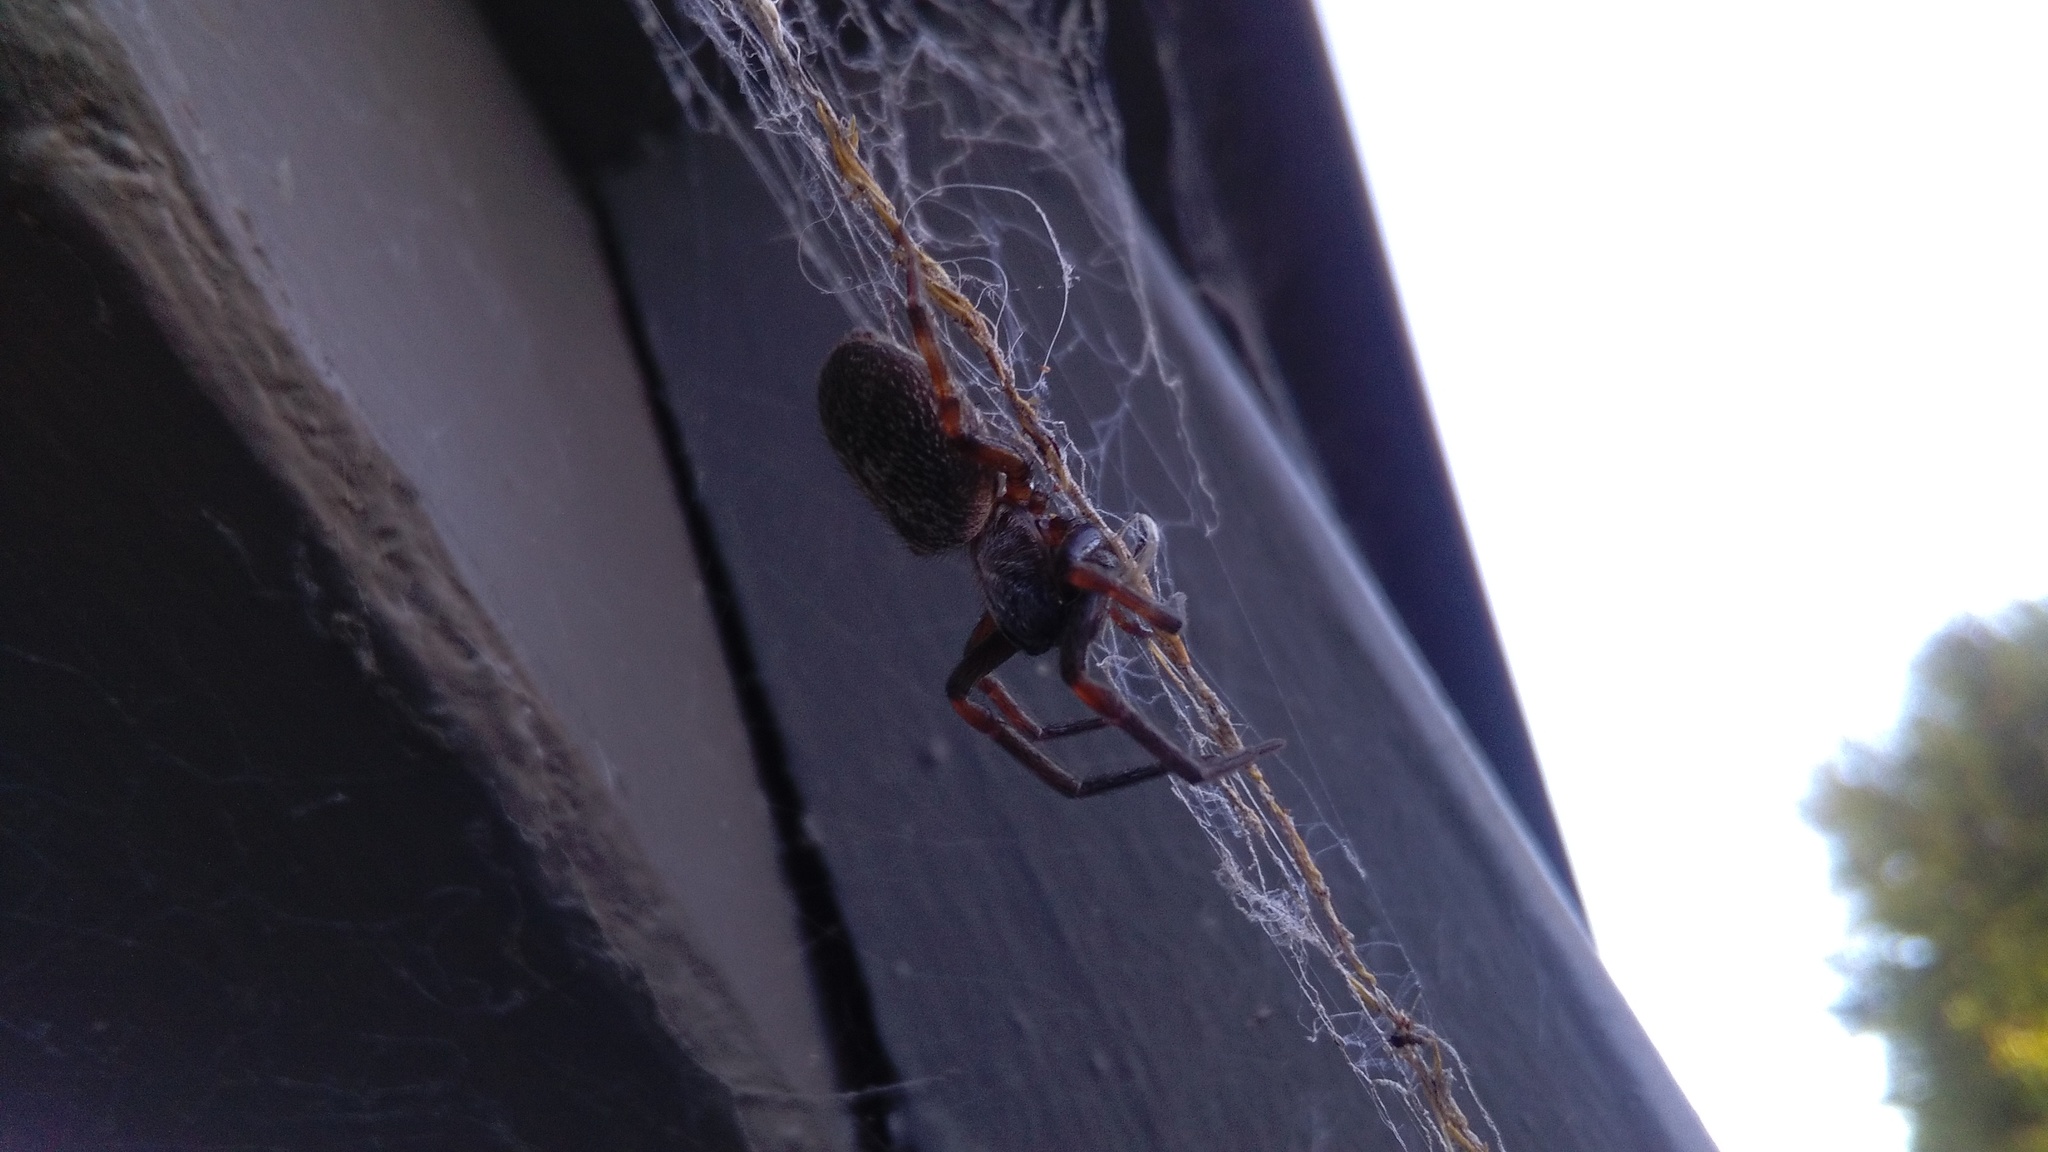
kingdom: Animalia
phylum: Arthropoda
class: Arachnida
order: Araneae
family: Desidae
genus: Badumna
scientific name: Badumna longinqua
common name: Gray house spider
